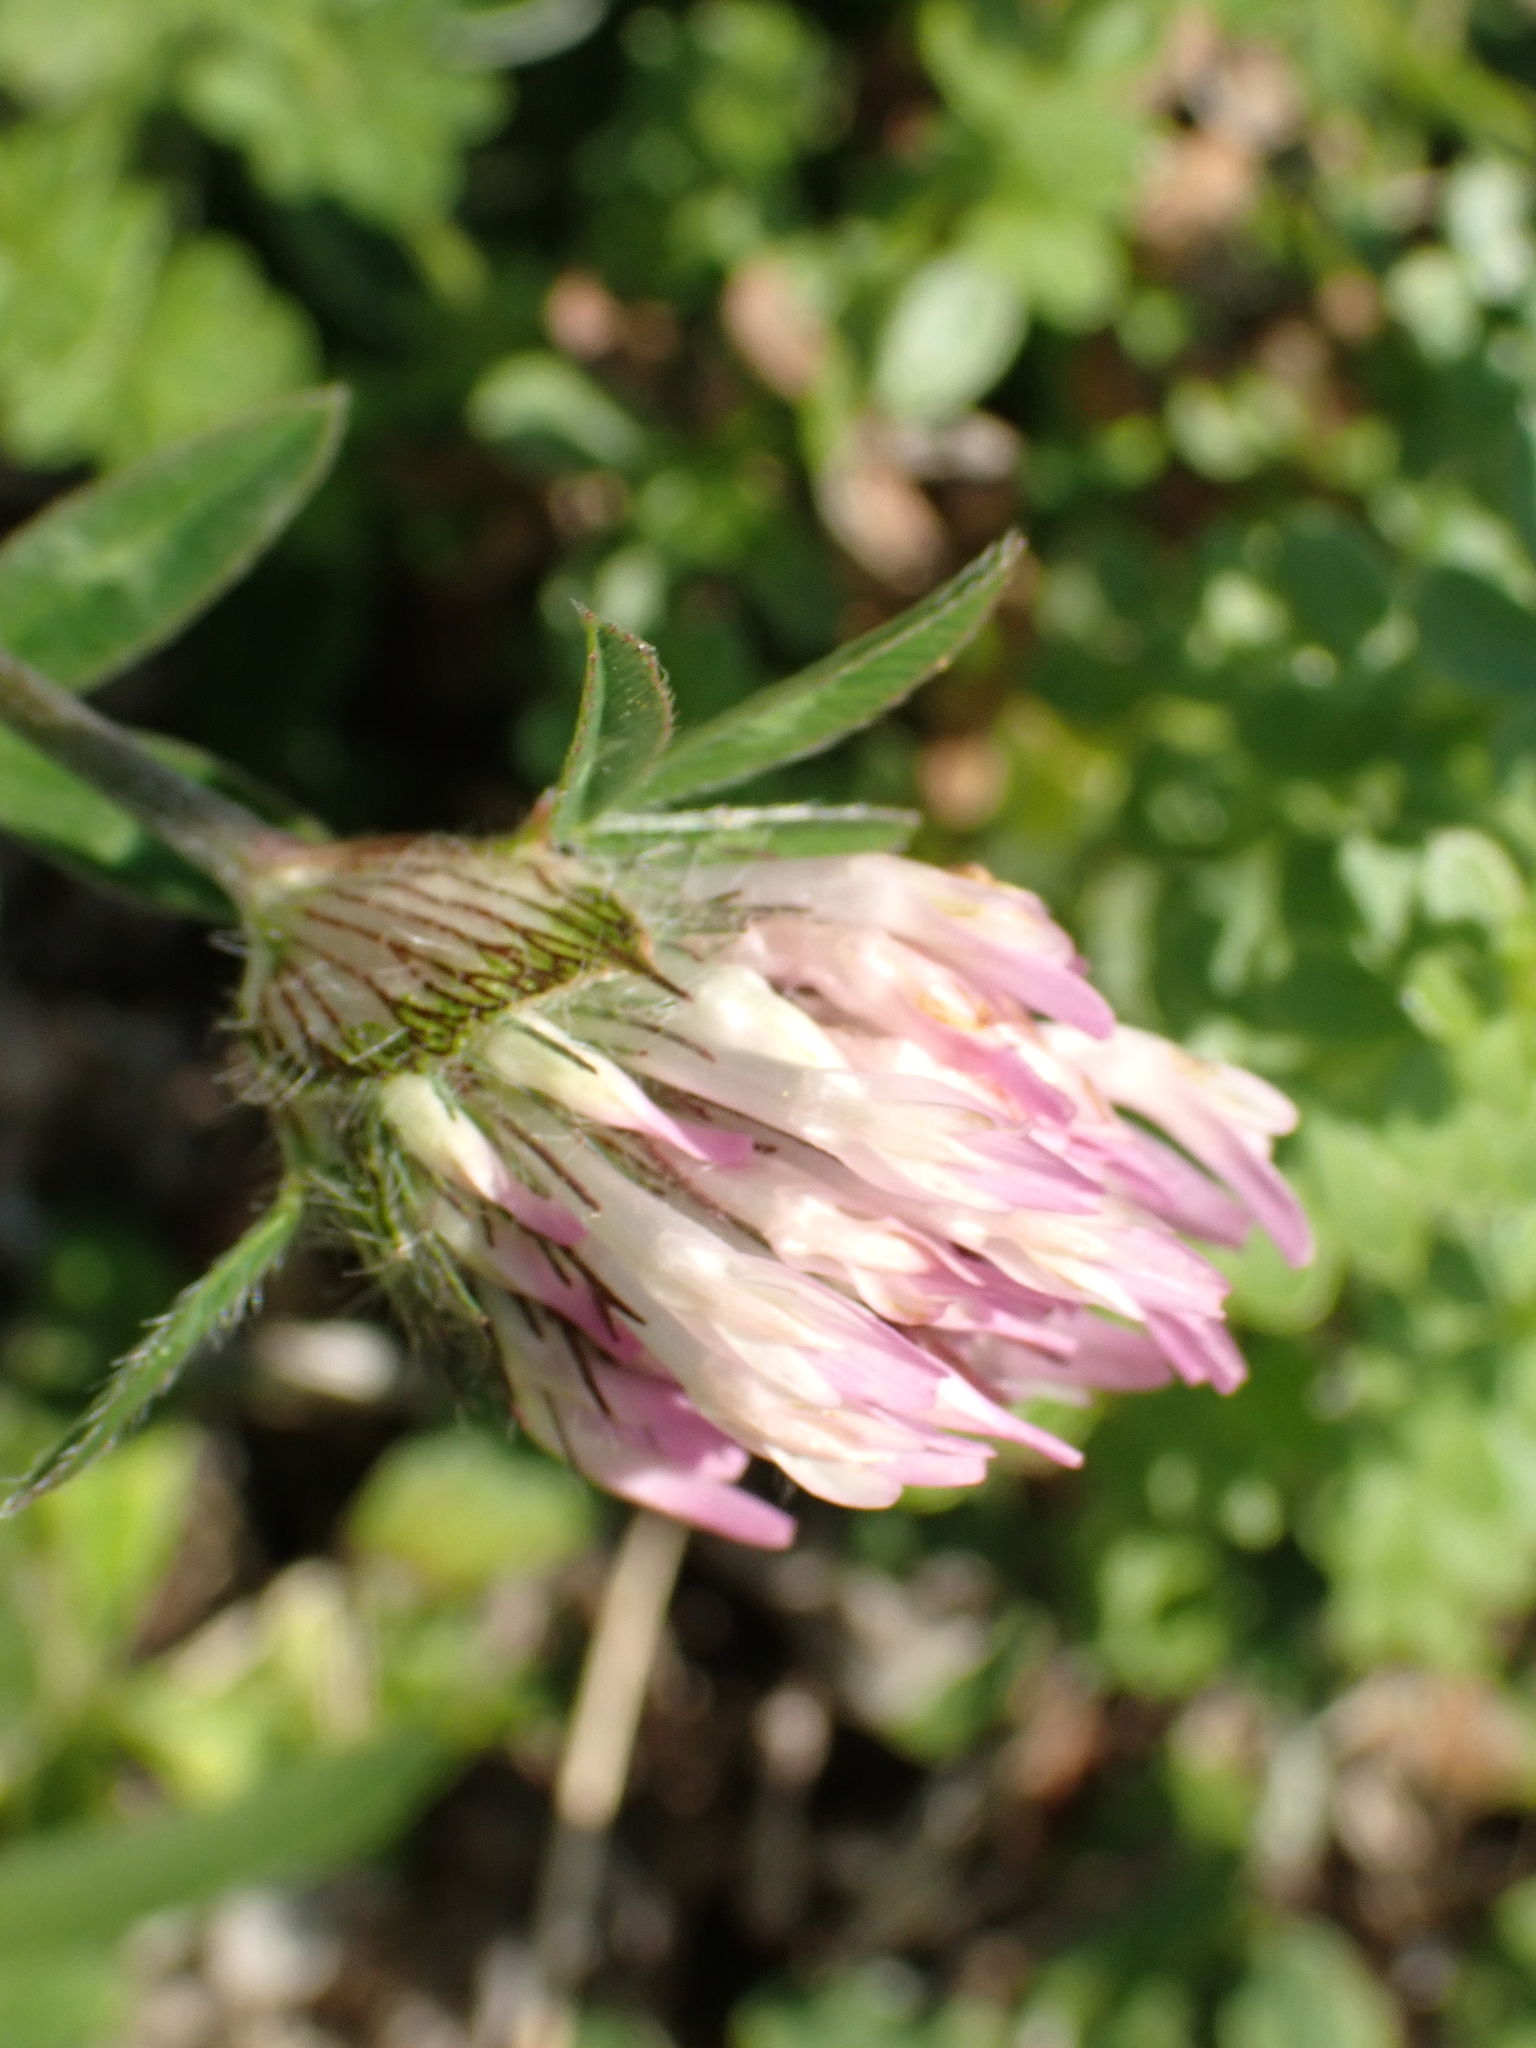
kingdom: Plantae
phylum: Tracheophyta
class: Magnoliopsida
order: Fabales
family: Fabaceae
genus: Trifolium
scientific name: Trifolium pratense
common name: Red clover
